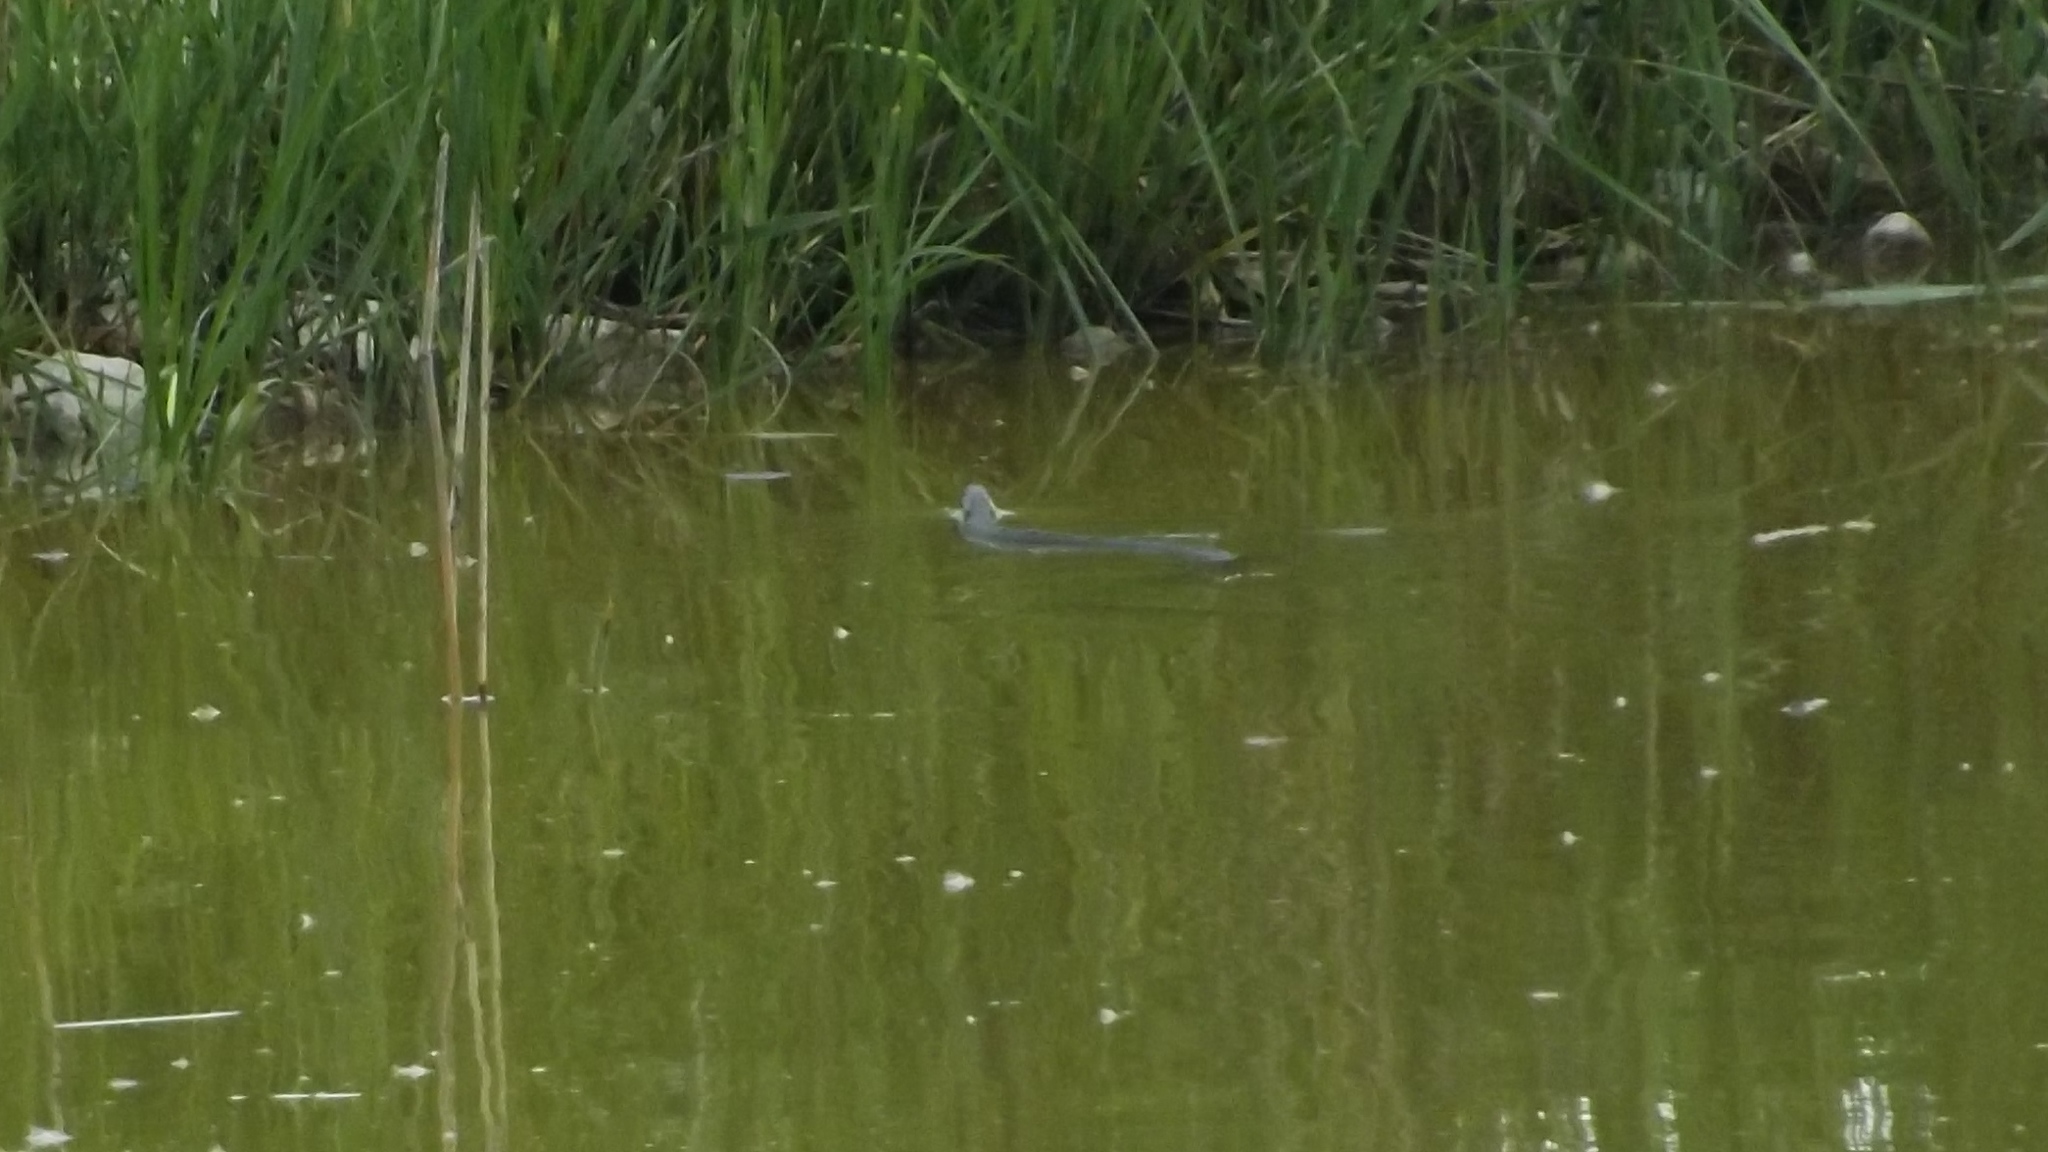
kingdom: Animalia
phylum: Chordata
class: Squamata
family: Colubridae
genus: Natrix
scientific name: Natrix natrix
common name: Grass snake
